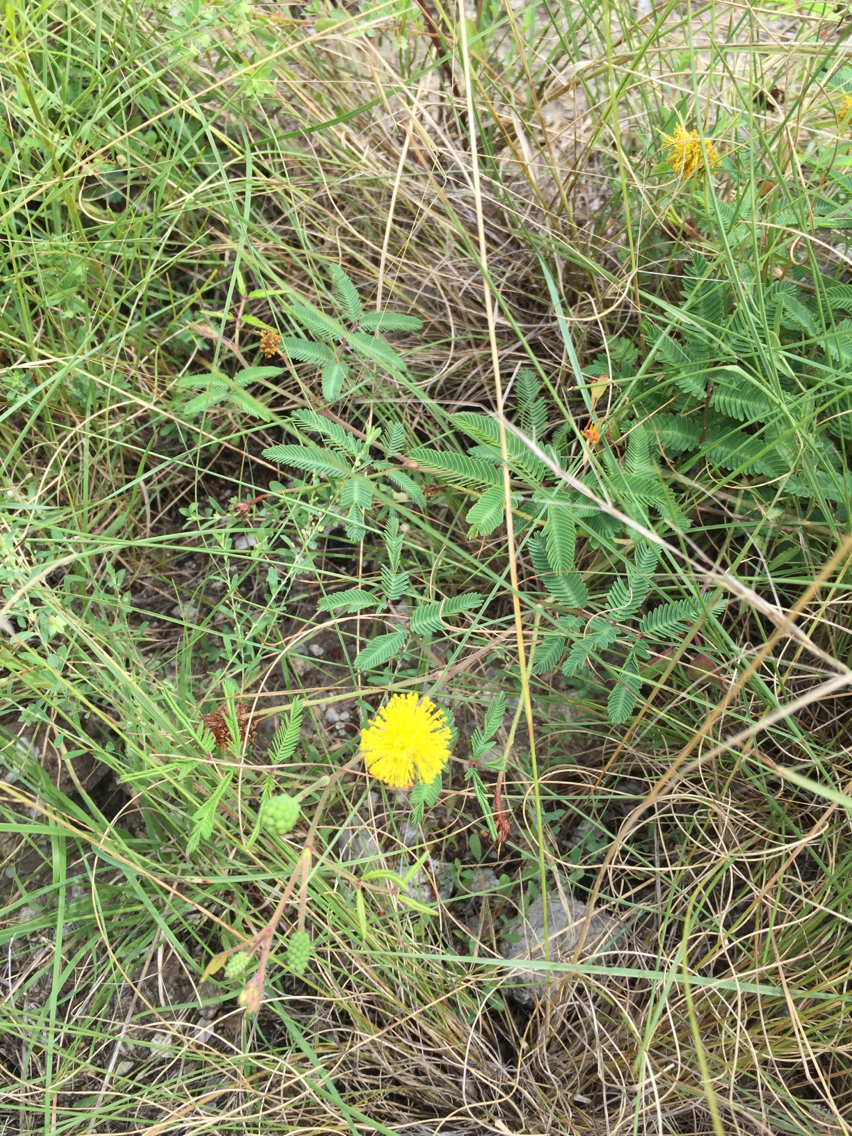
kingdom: Plantae
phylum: Tracheophyta
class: Magnoliopsida
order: Fabales
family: Fabaceae
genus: Neptunia
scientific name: Neptunia lutea
